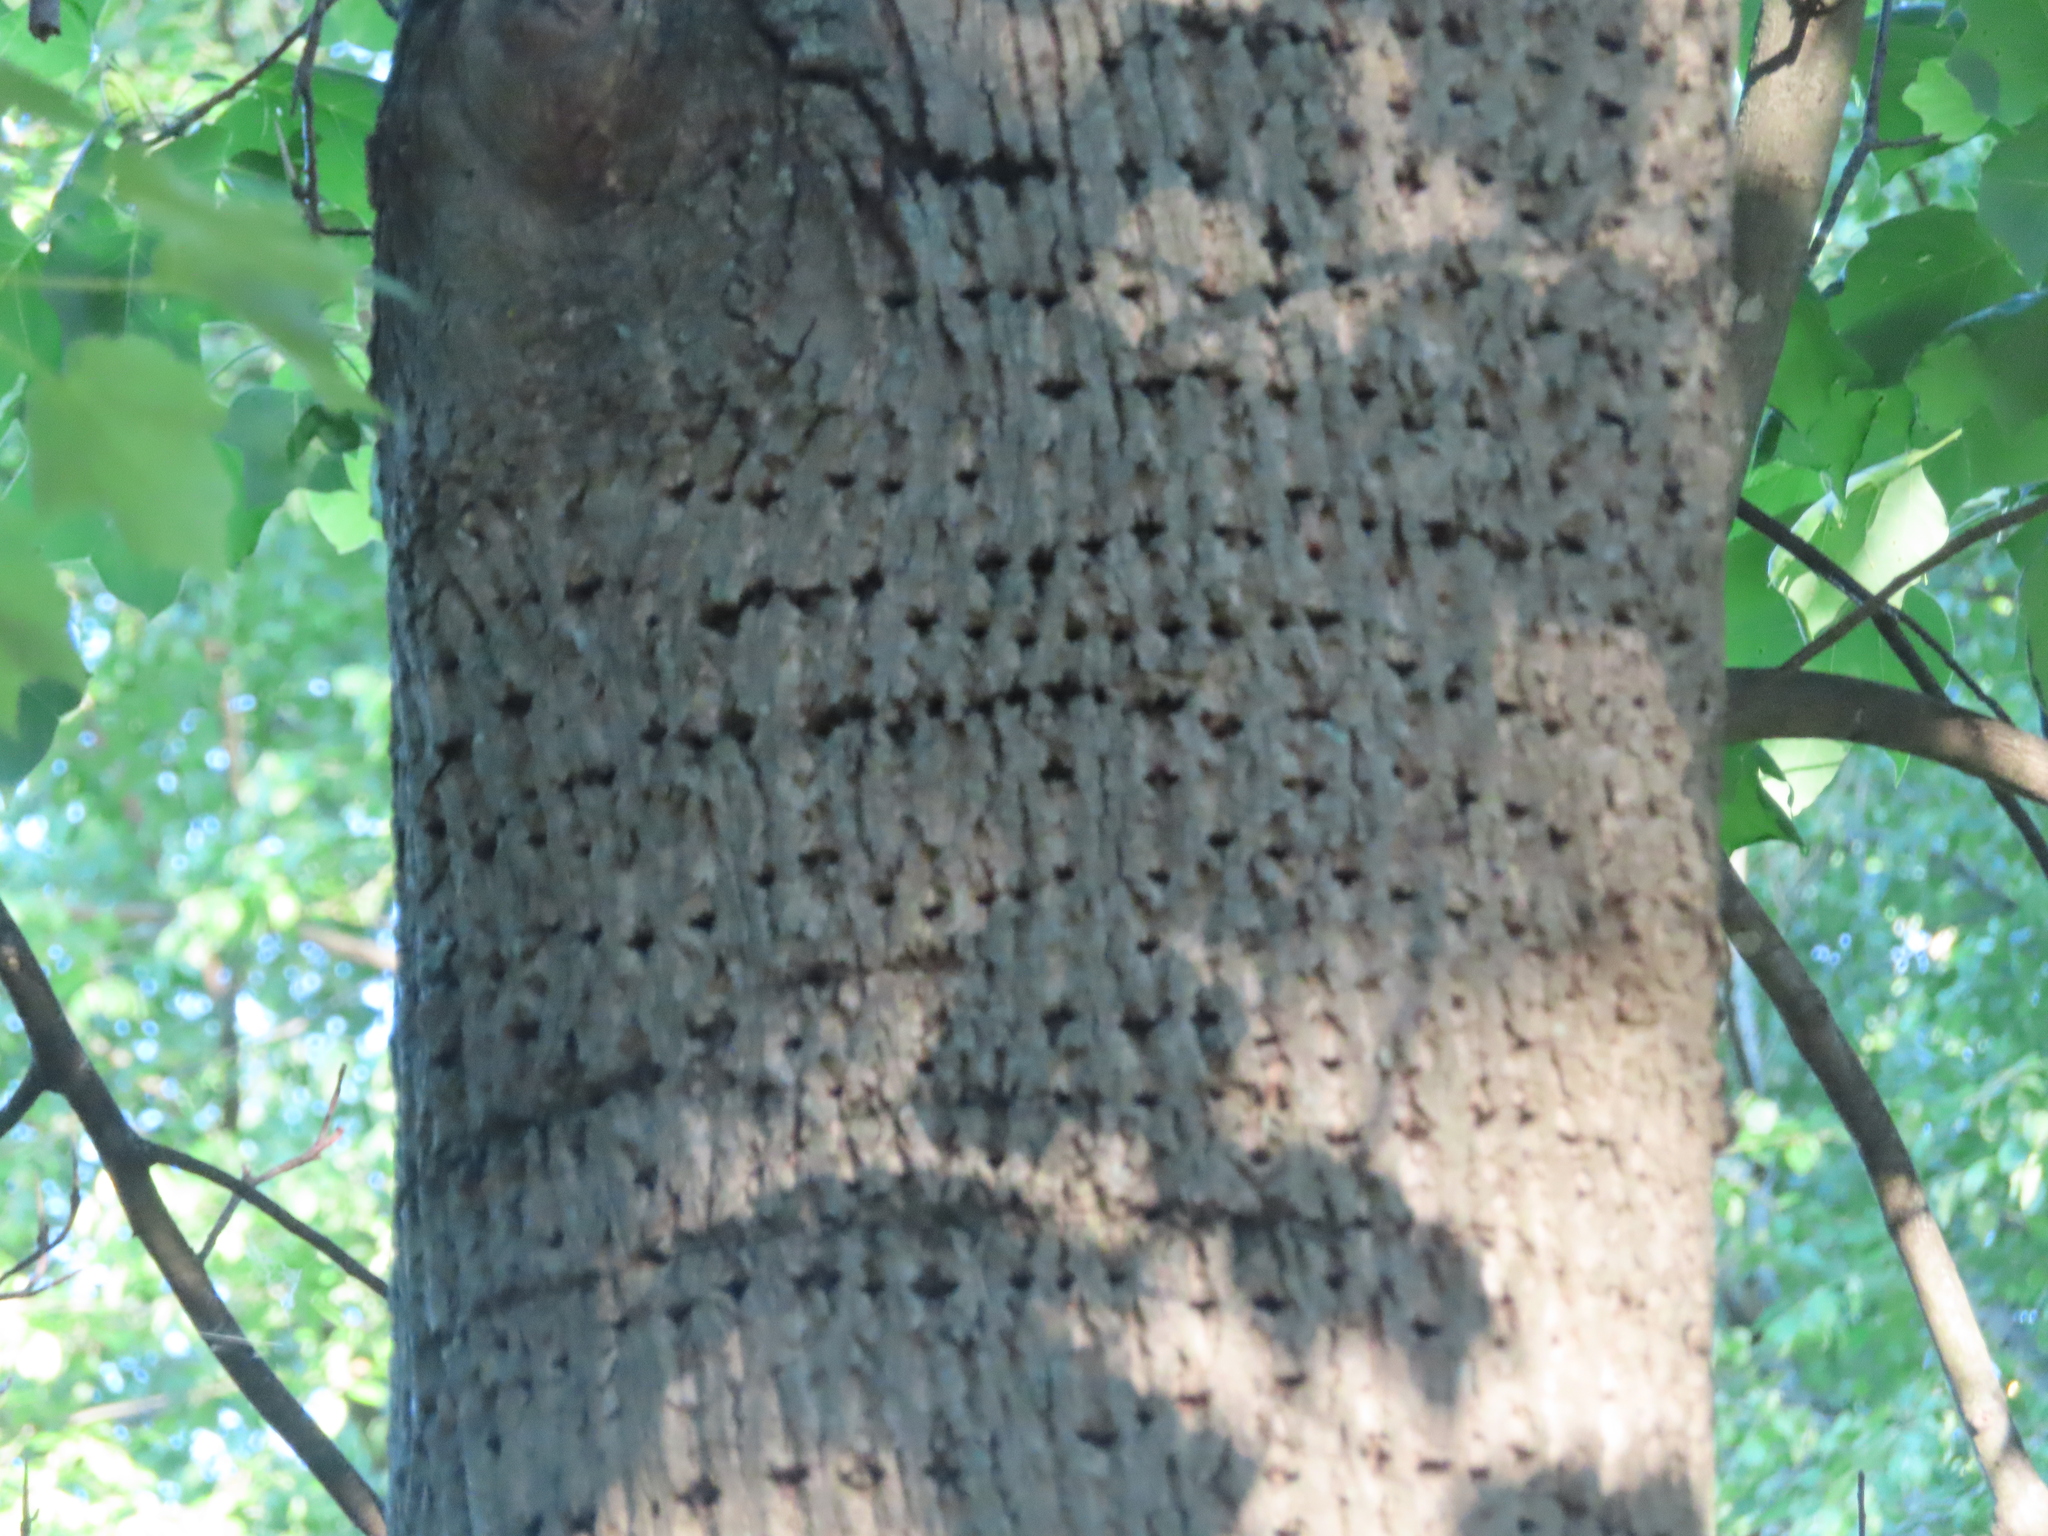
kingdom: Animalia
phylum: Chordata
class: Aves
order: Piciformes
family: Picidae
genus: Sphyrapicus
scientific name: Sphyrapicus varius
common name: Yellow-bellied sapsucker
